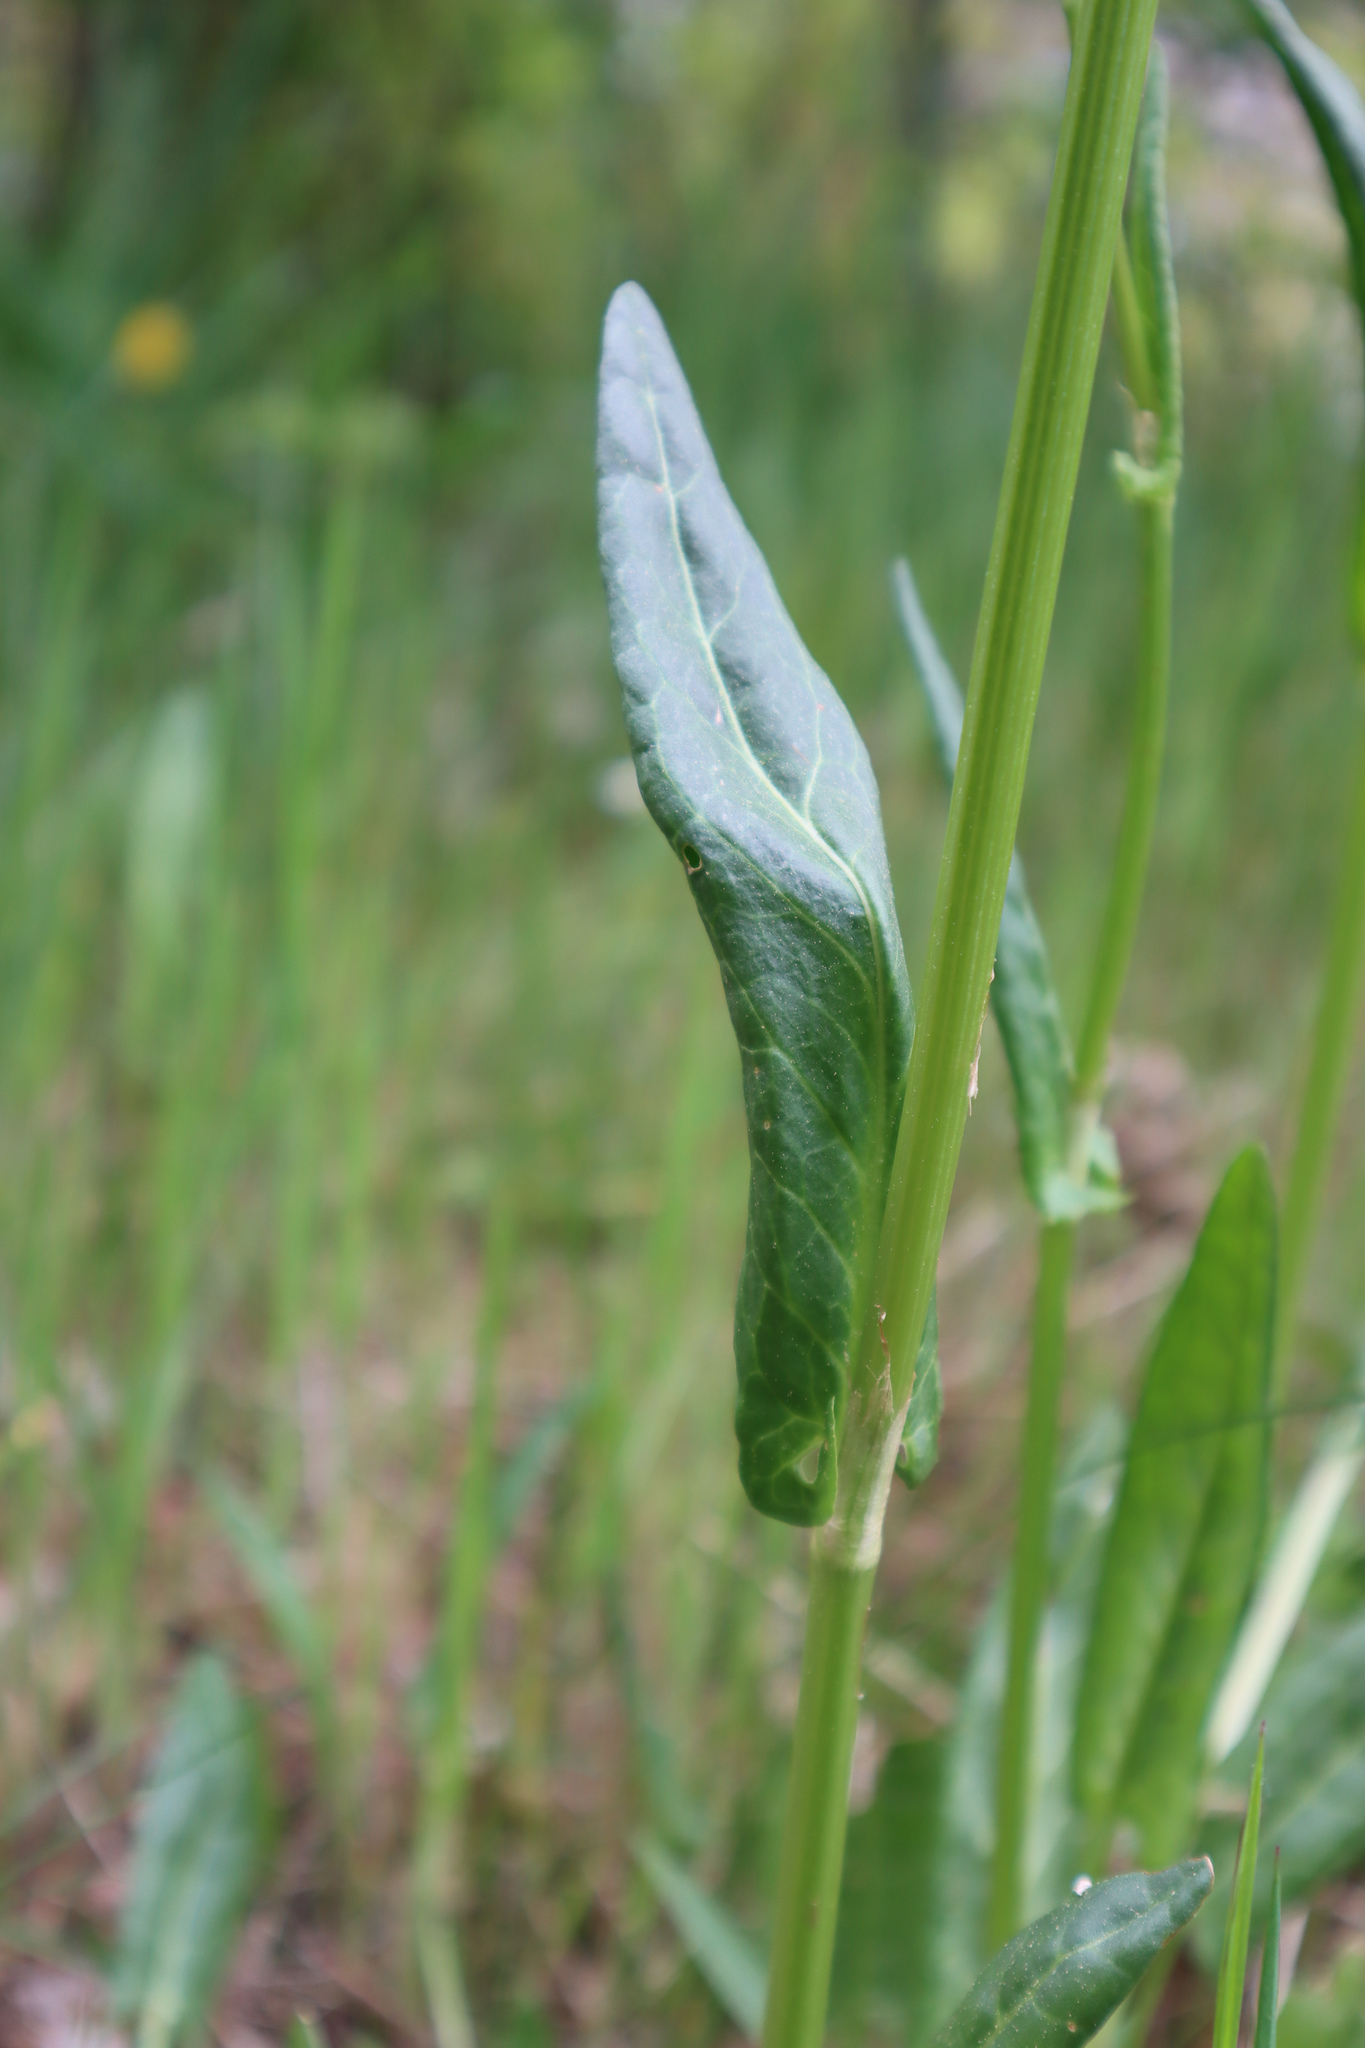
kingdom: Plantae
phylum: Tracheophyta
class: Magnoliopsida
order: Caryophyllales
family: Polygonaceae
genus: Rumex
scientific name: Rumex acetosa
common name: Garden sorrel
